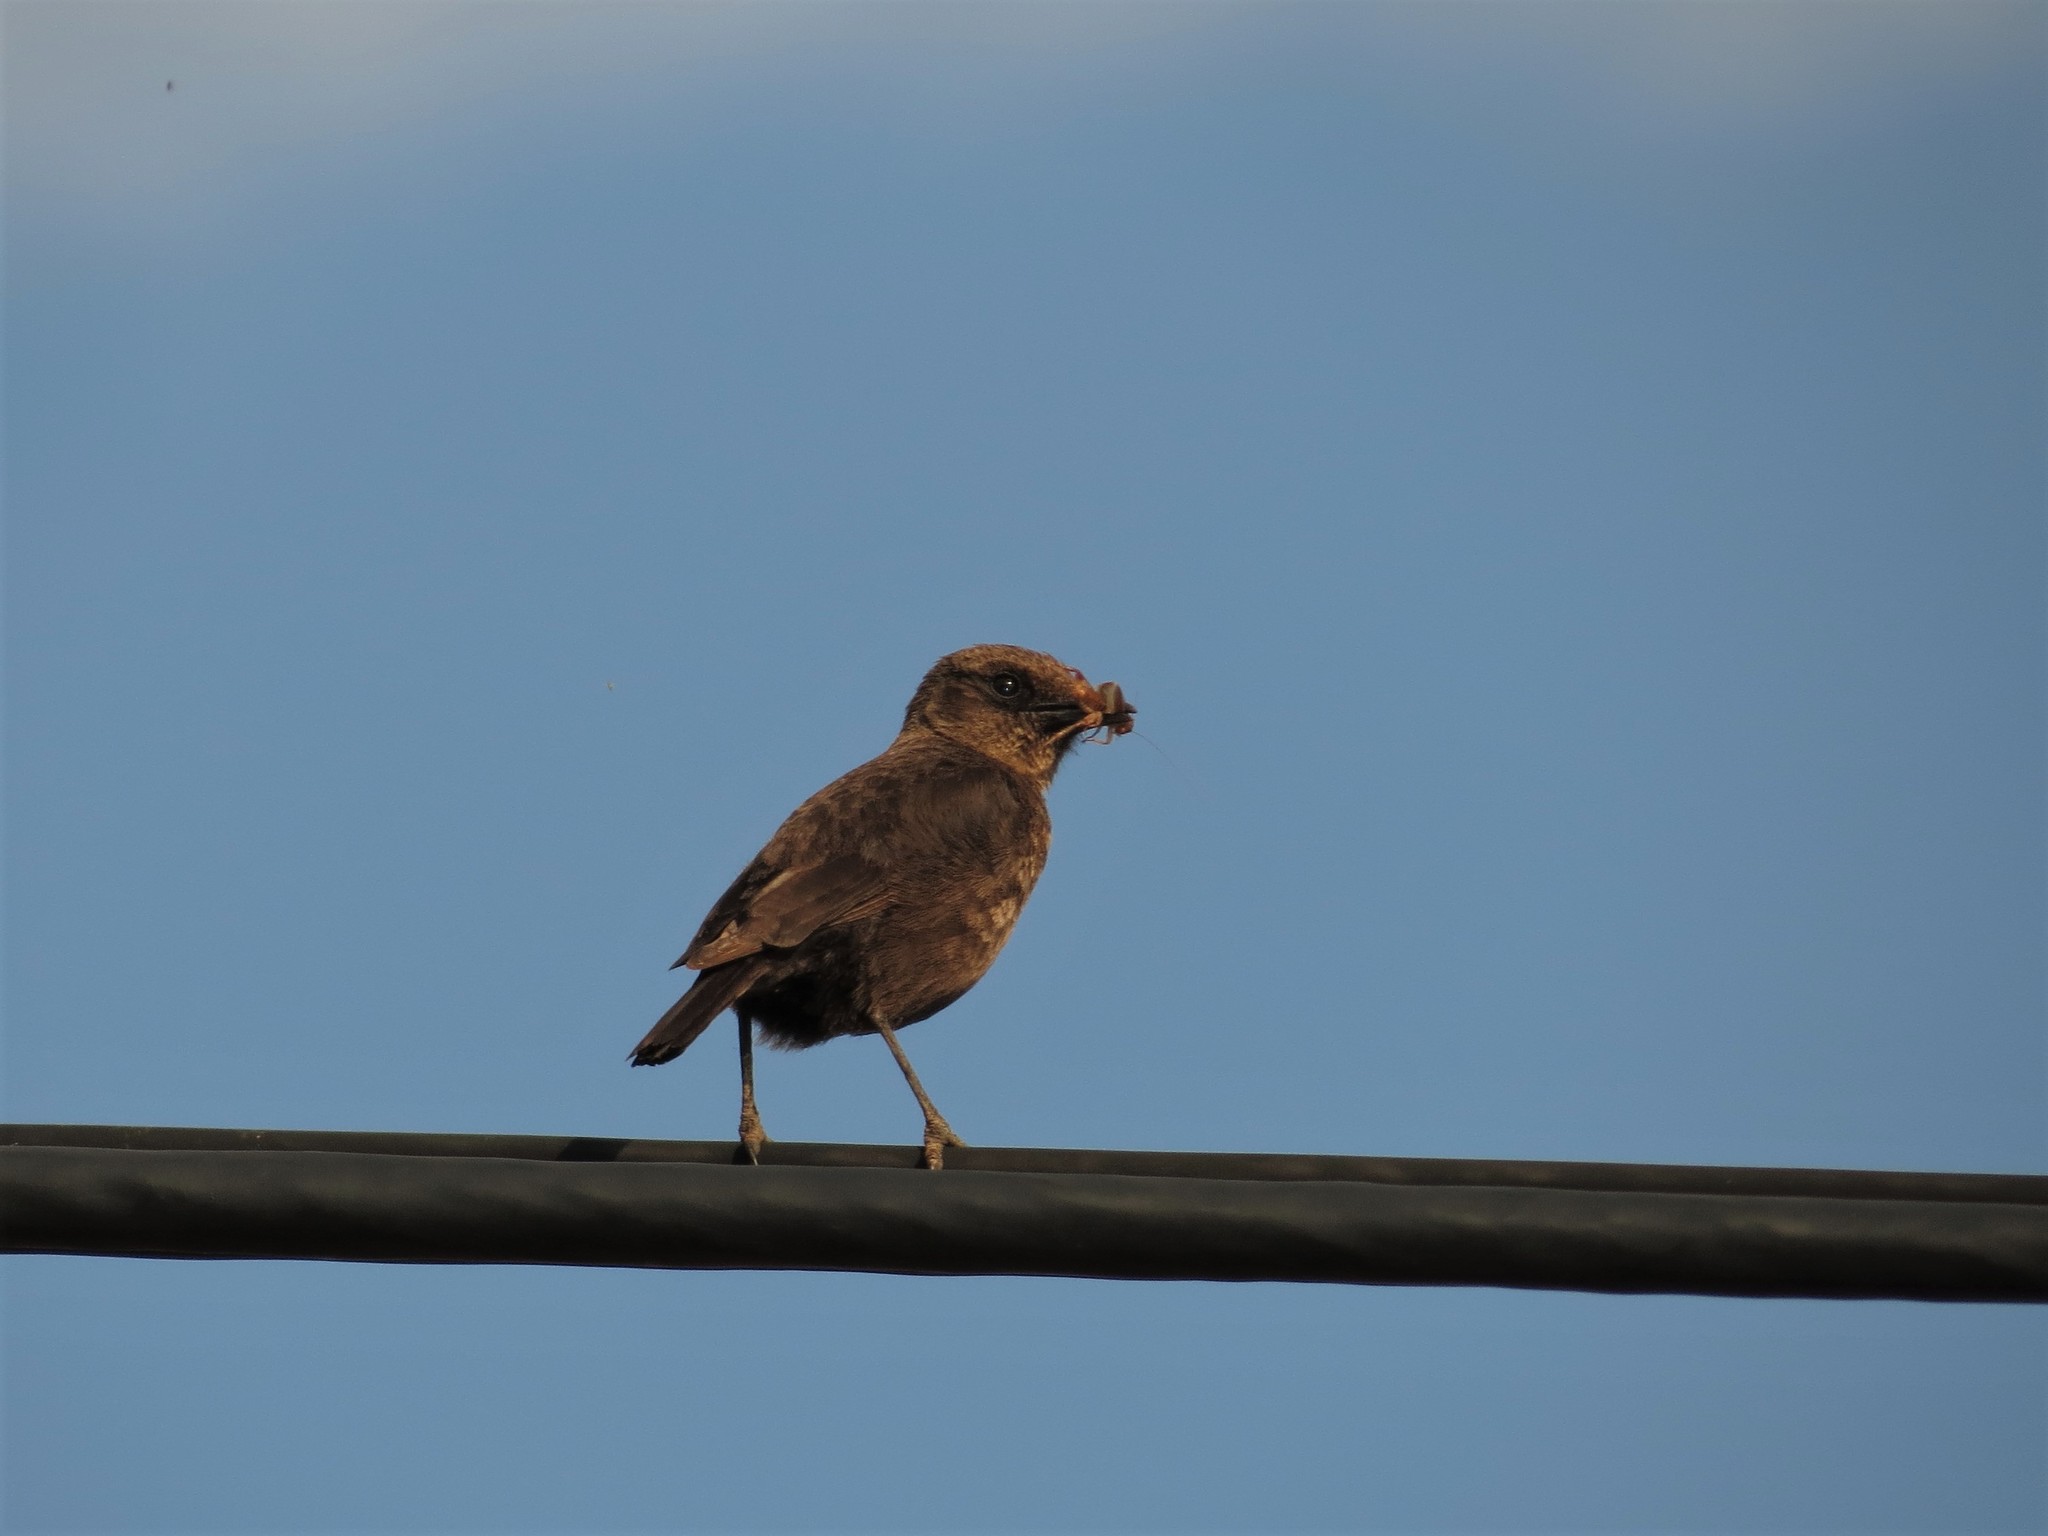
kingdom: Animalia
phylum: Chordata
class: Aves
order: Passeriformes
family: Muscicapidae
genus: Myrmecocichla
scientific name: Myrmecocichla formicivora
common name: Ant-eating chat
